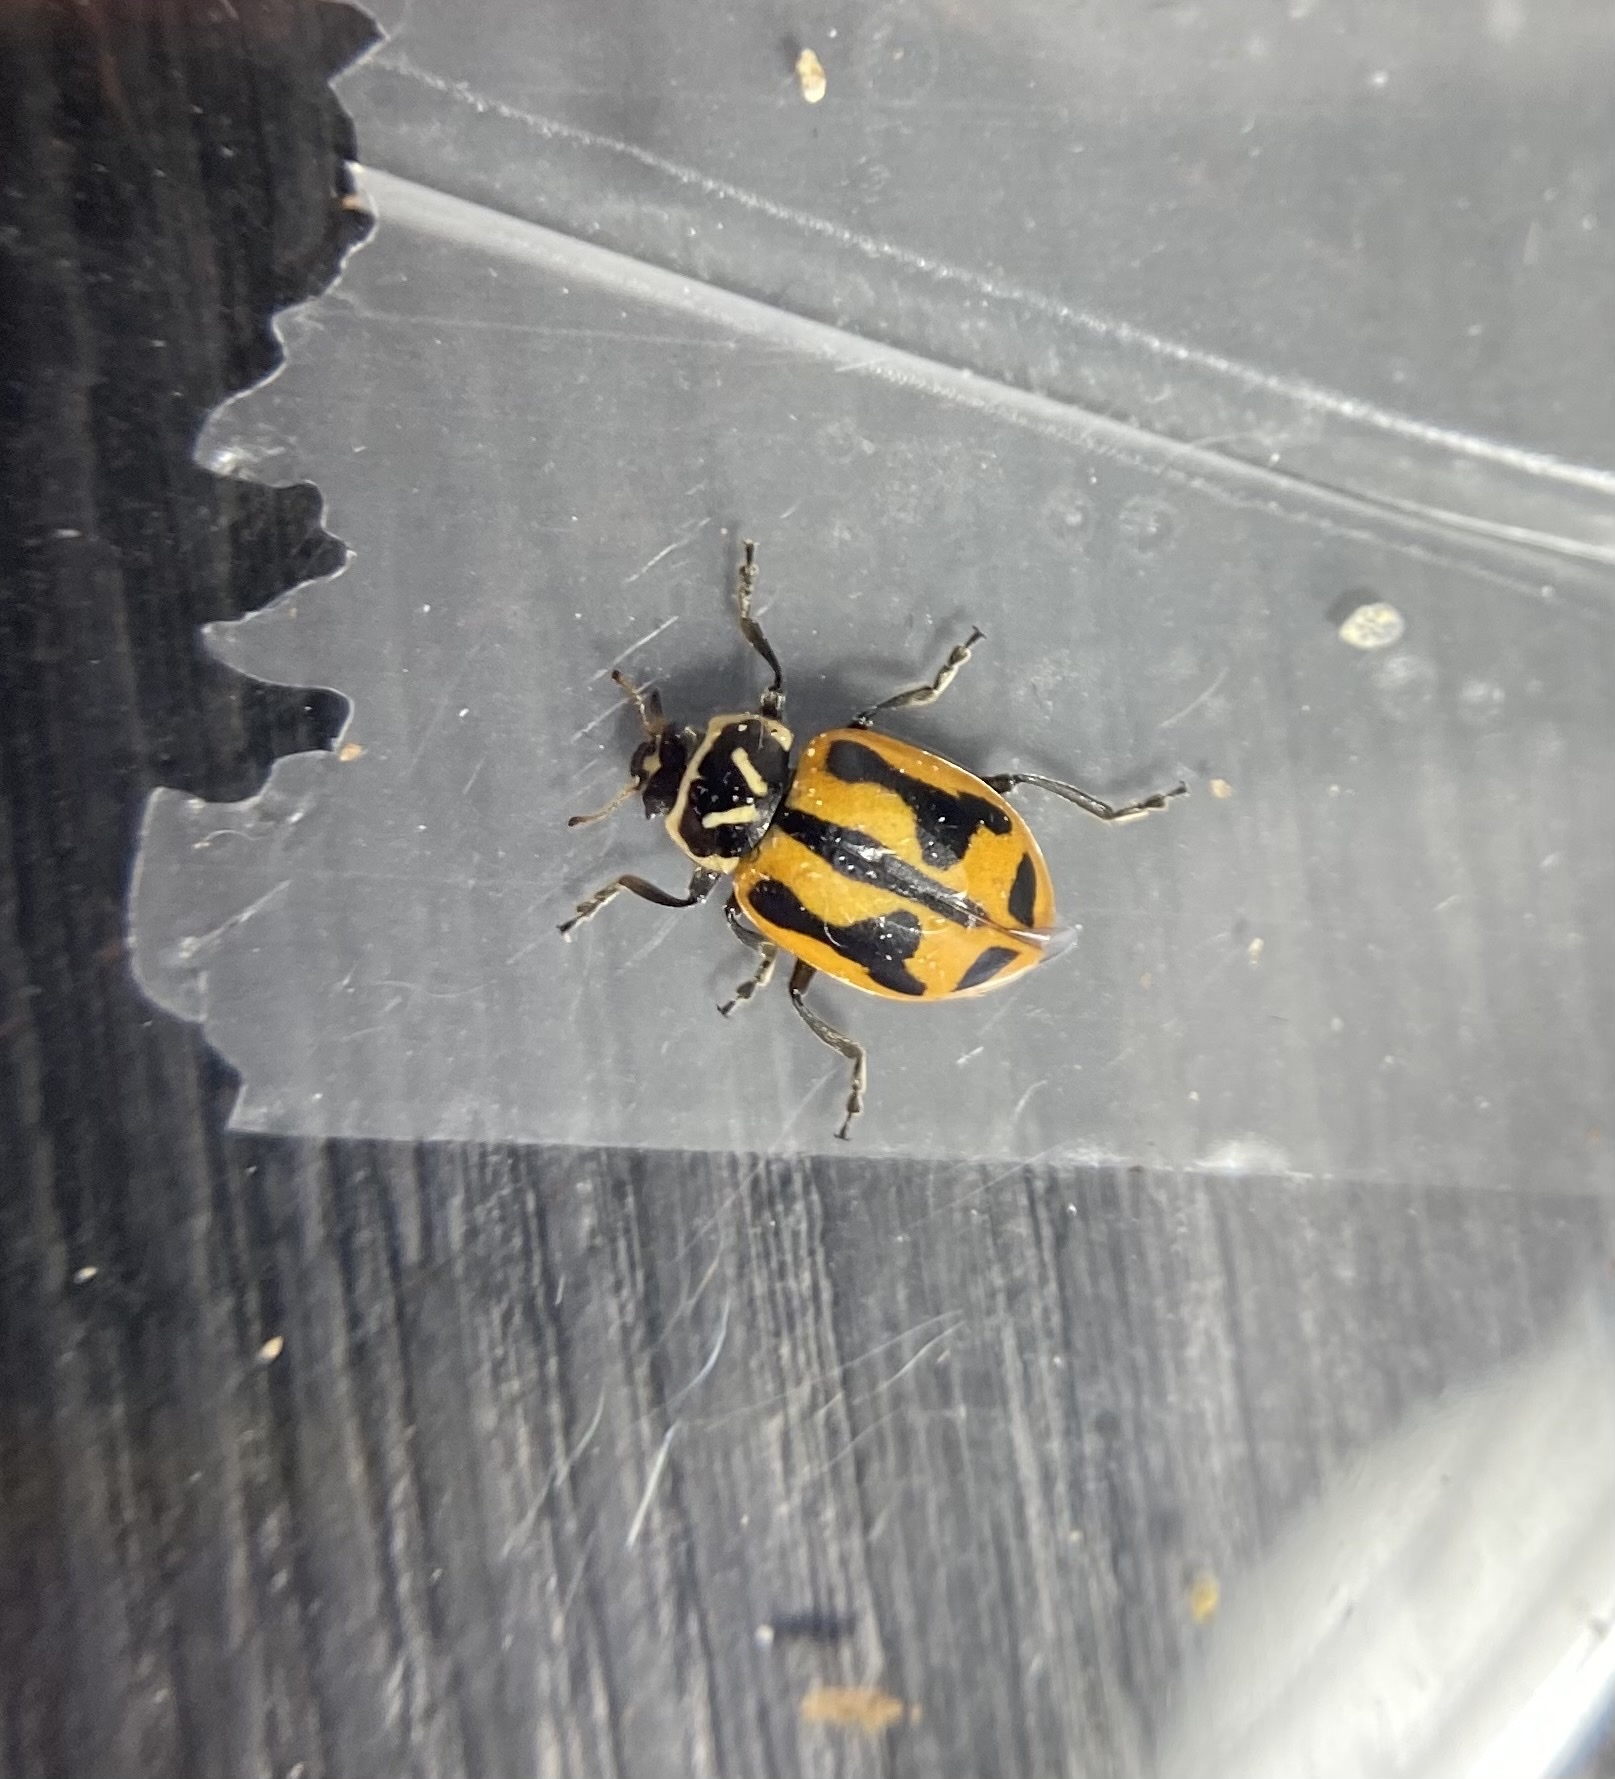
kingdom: Animalia
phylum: Arthropoda
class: Insecta
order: Coleoptera
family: Coccinellidae
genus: Hippodamia
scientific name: Hippodamia sinuata
